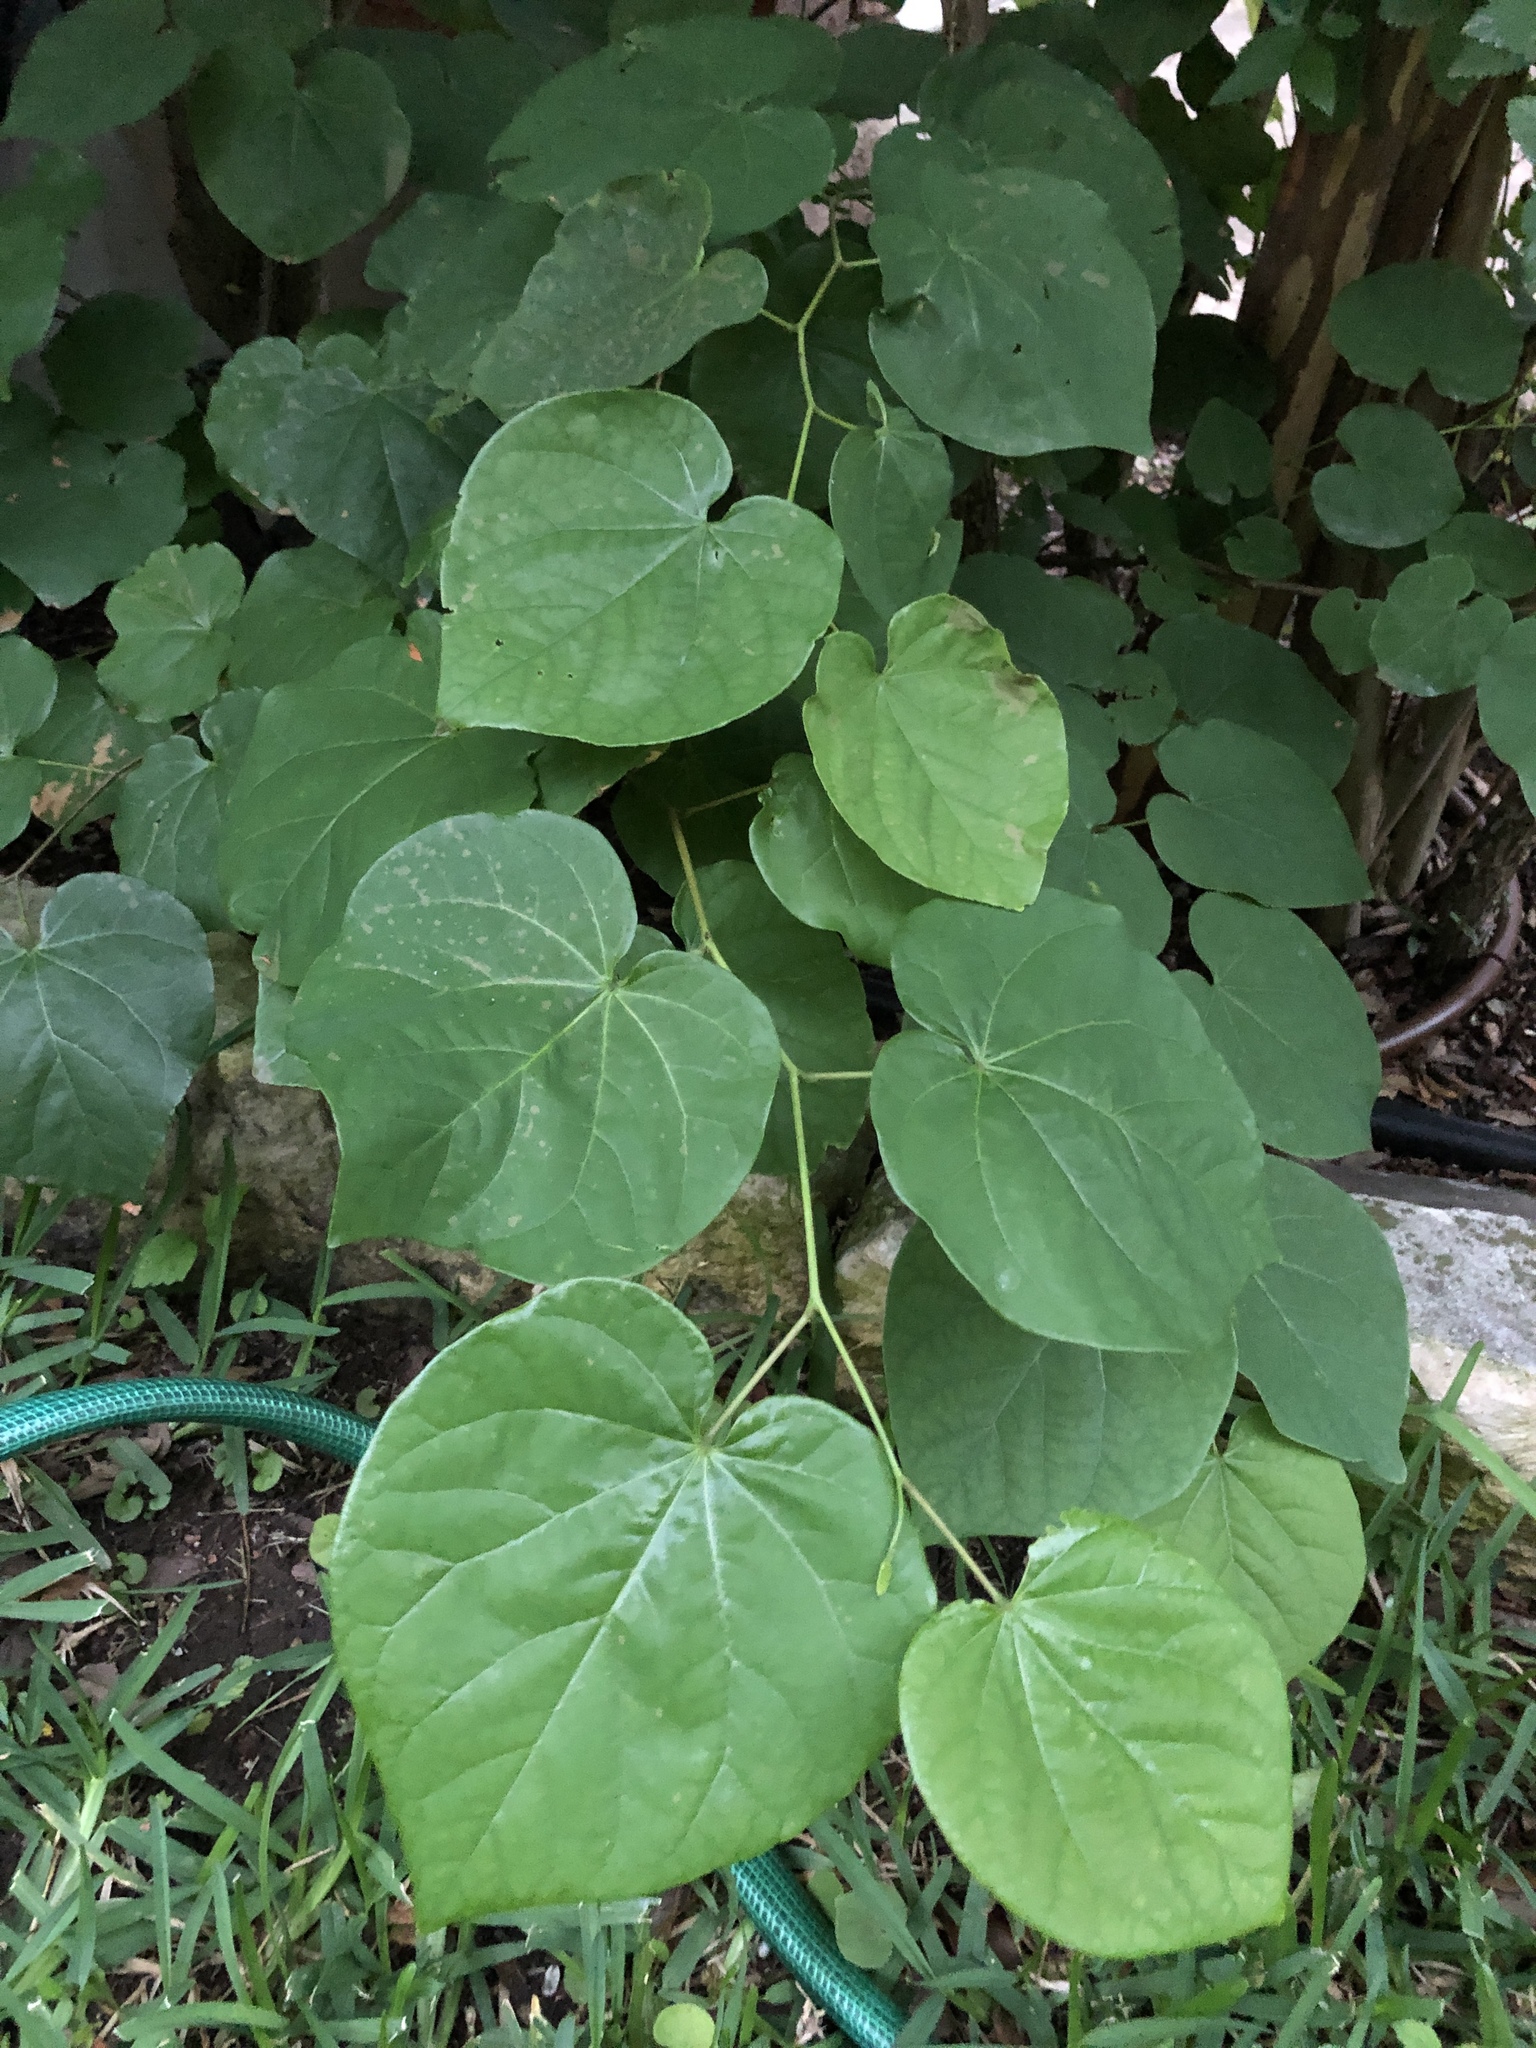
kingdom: Plantae
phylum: Tracheophyta
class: Magnoliopsida
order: Fabales
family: Fabaceae
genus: Cercis
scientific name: Cercis canadensis
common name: Eastern redbud
